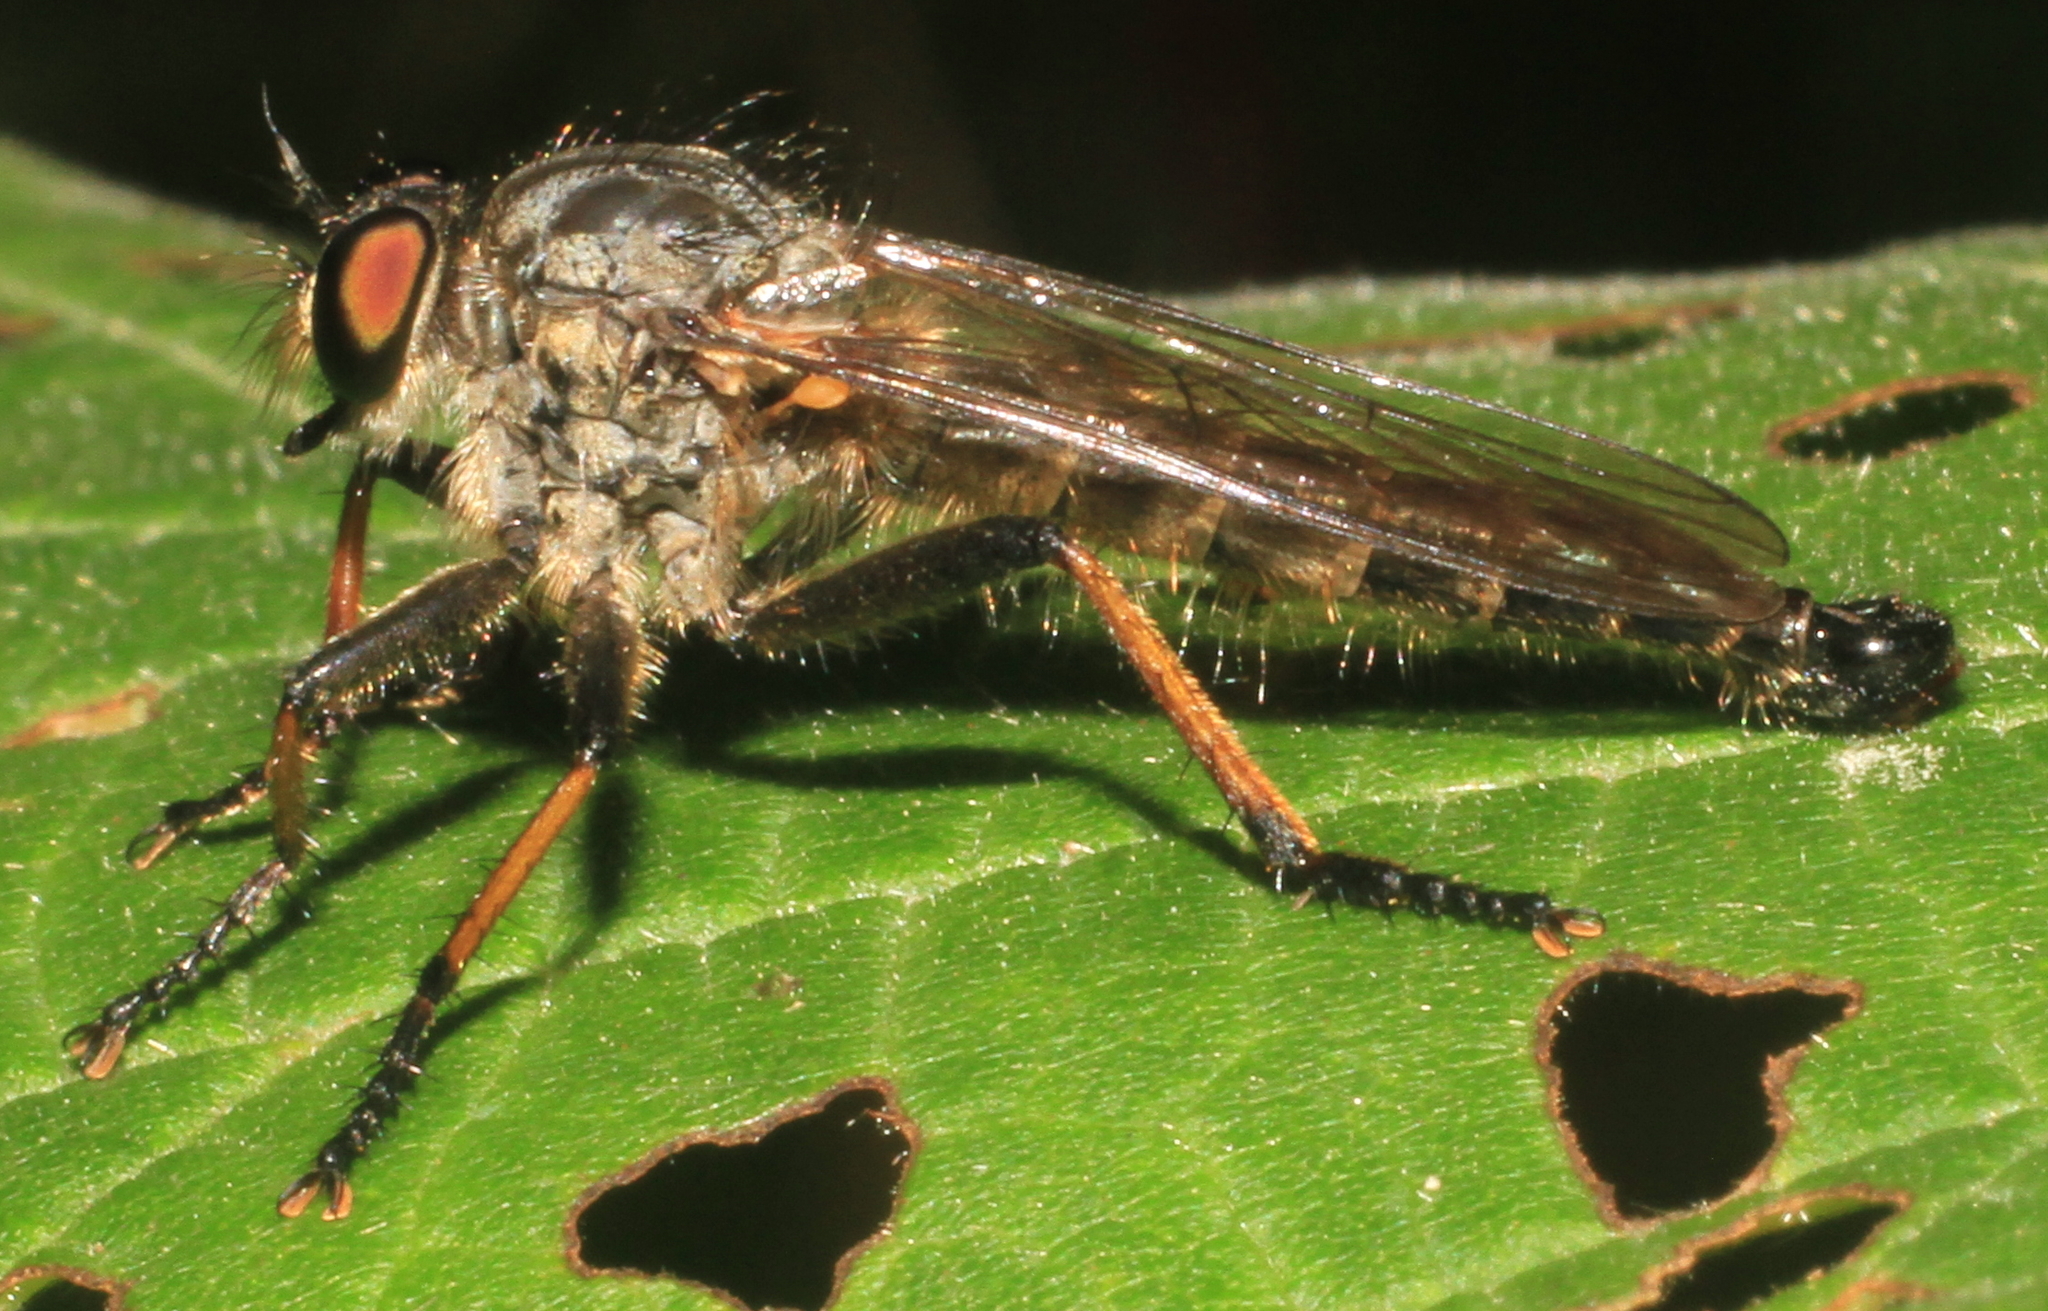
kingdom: Animalia
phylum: Arthropoda
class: Insecta
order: Diptera
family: Asilidae
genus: Neoitamus
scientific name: Neoitamus cyanurus
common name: Common awl robberfly
